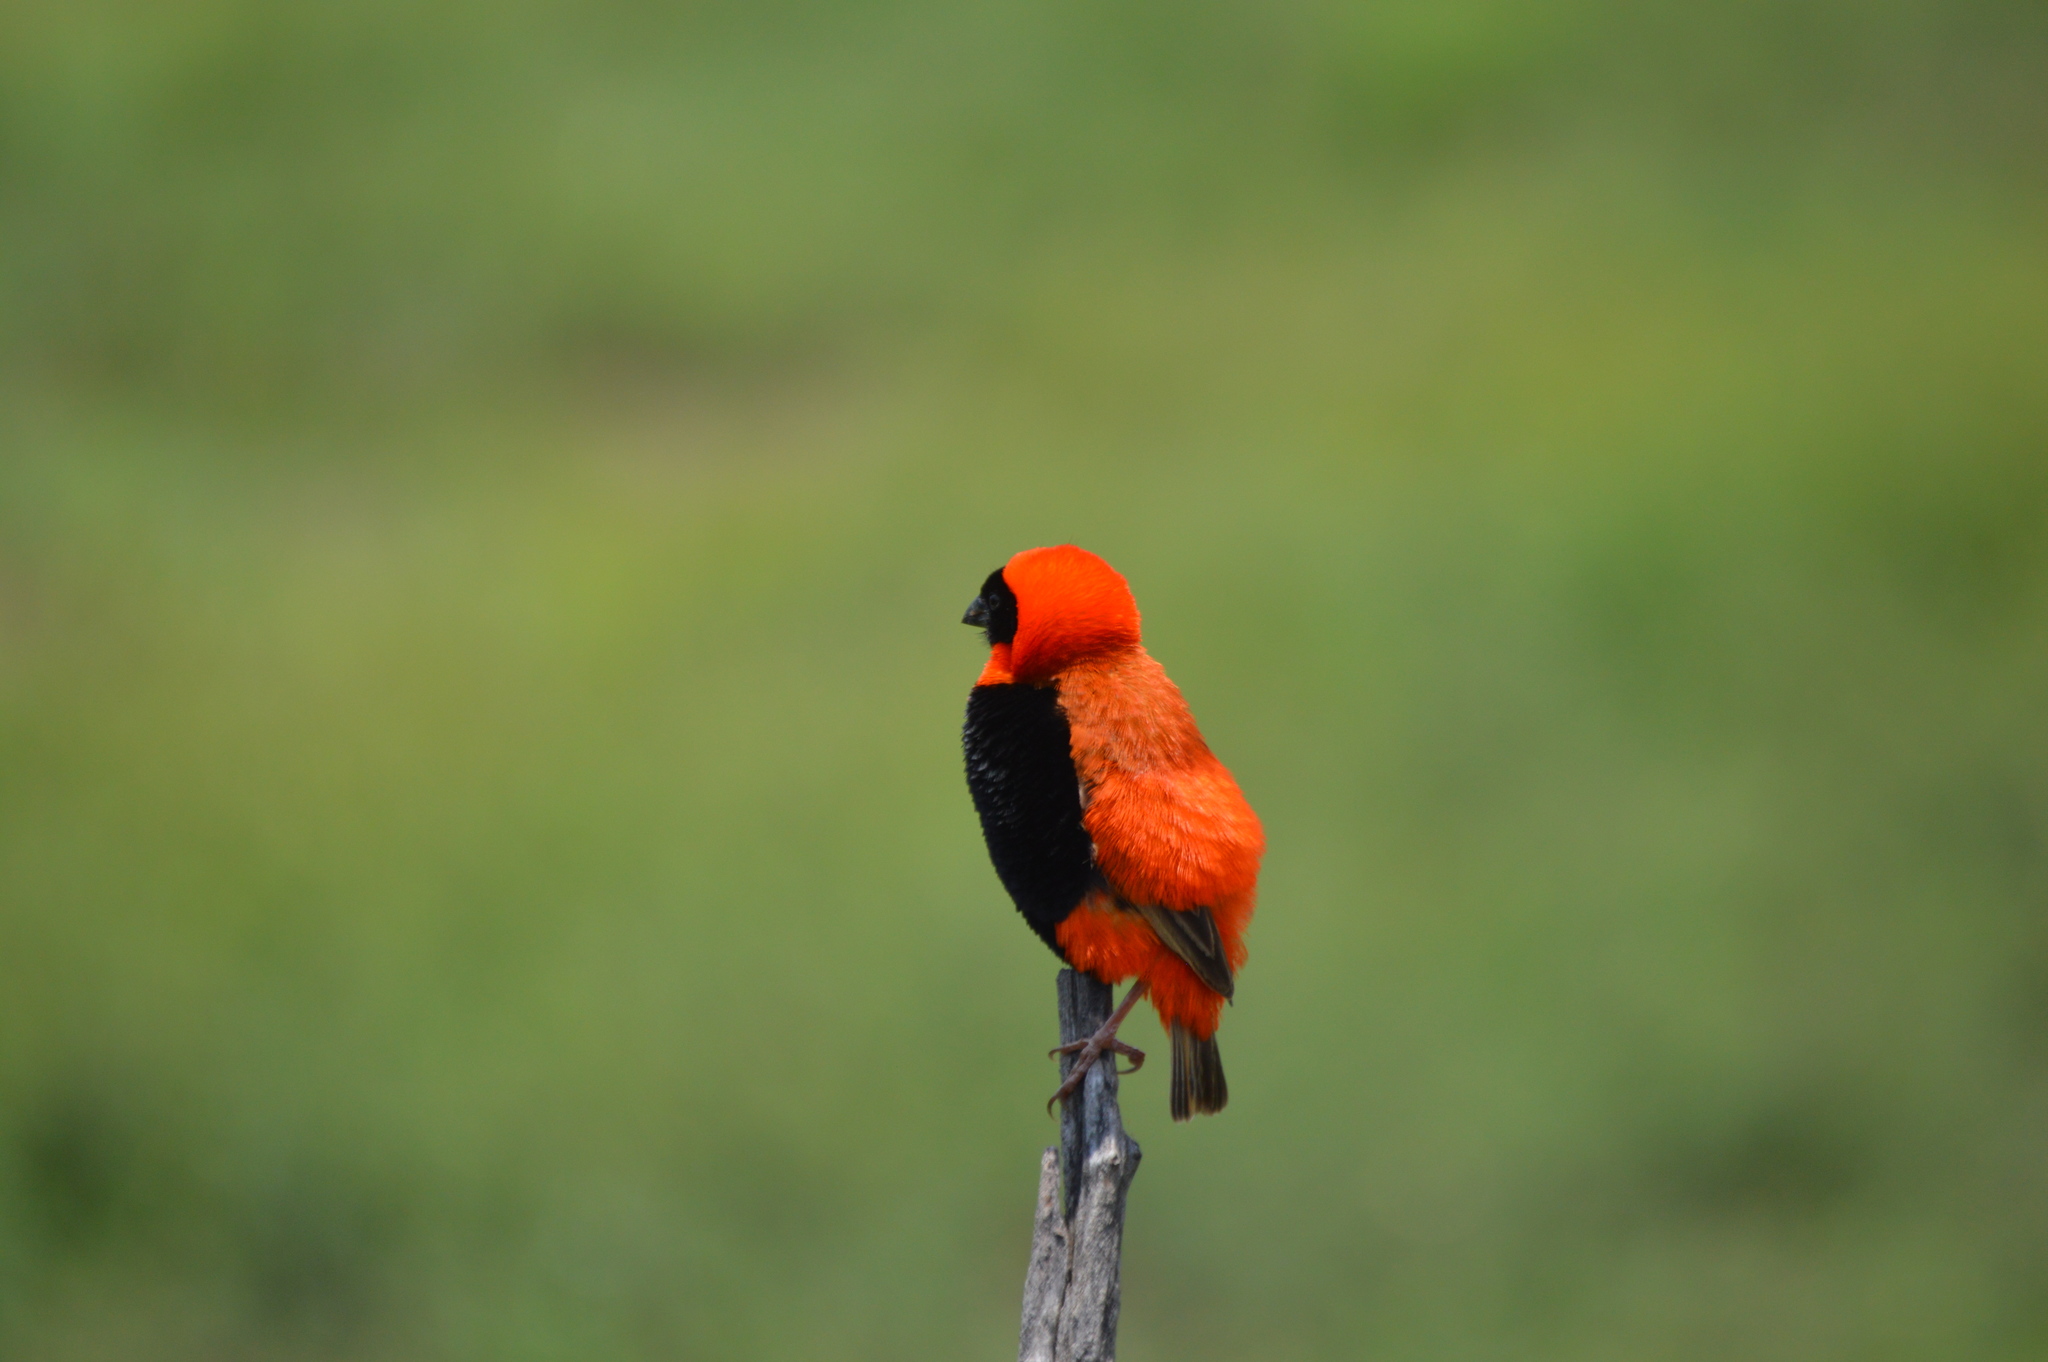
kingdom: Animalia
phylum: Chordata
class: Aves
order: Passeriformes
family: Ploceidae
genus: Euplectes
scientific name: Euplectes orix
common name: Southern red bishop
